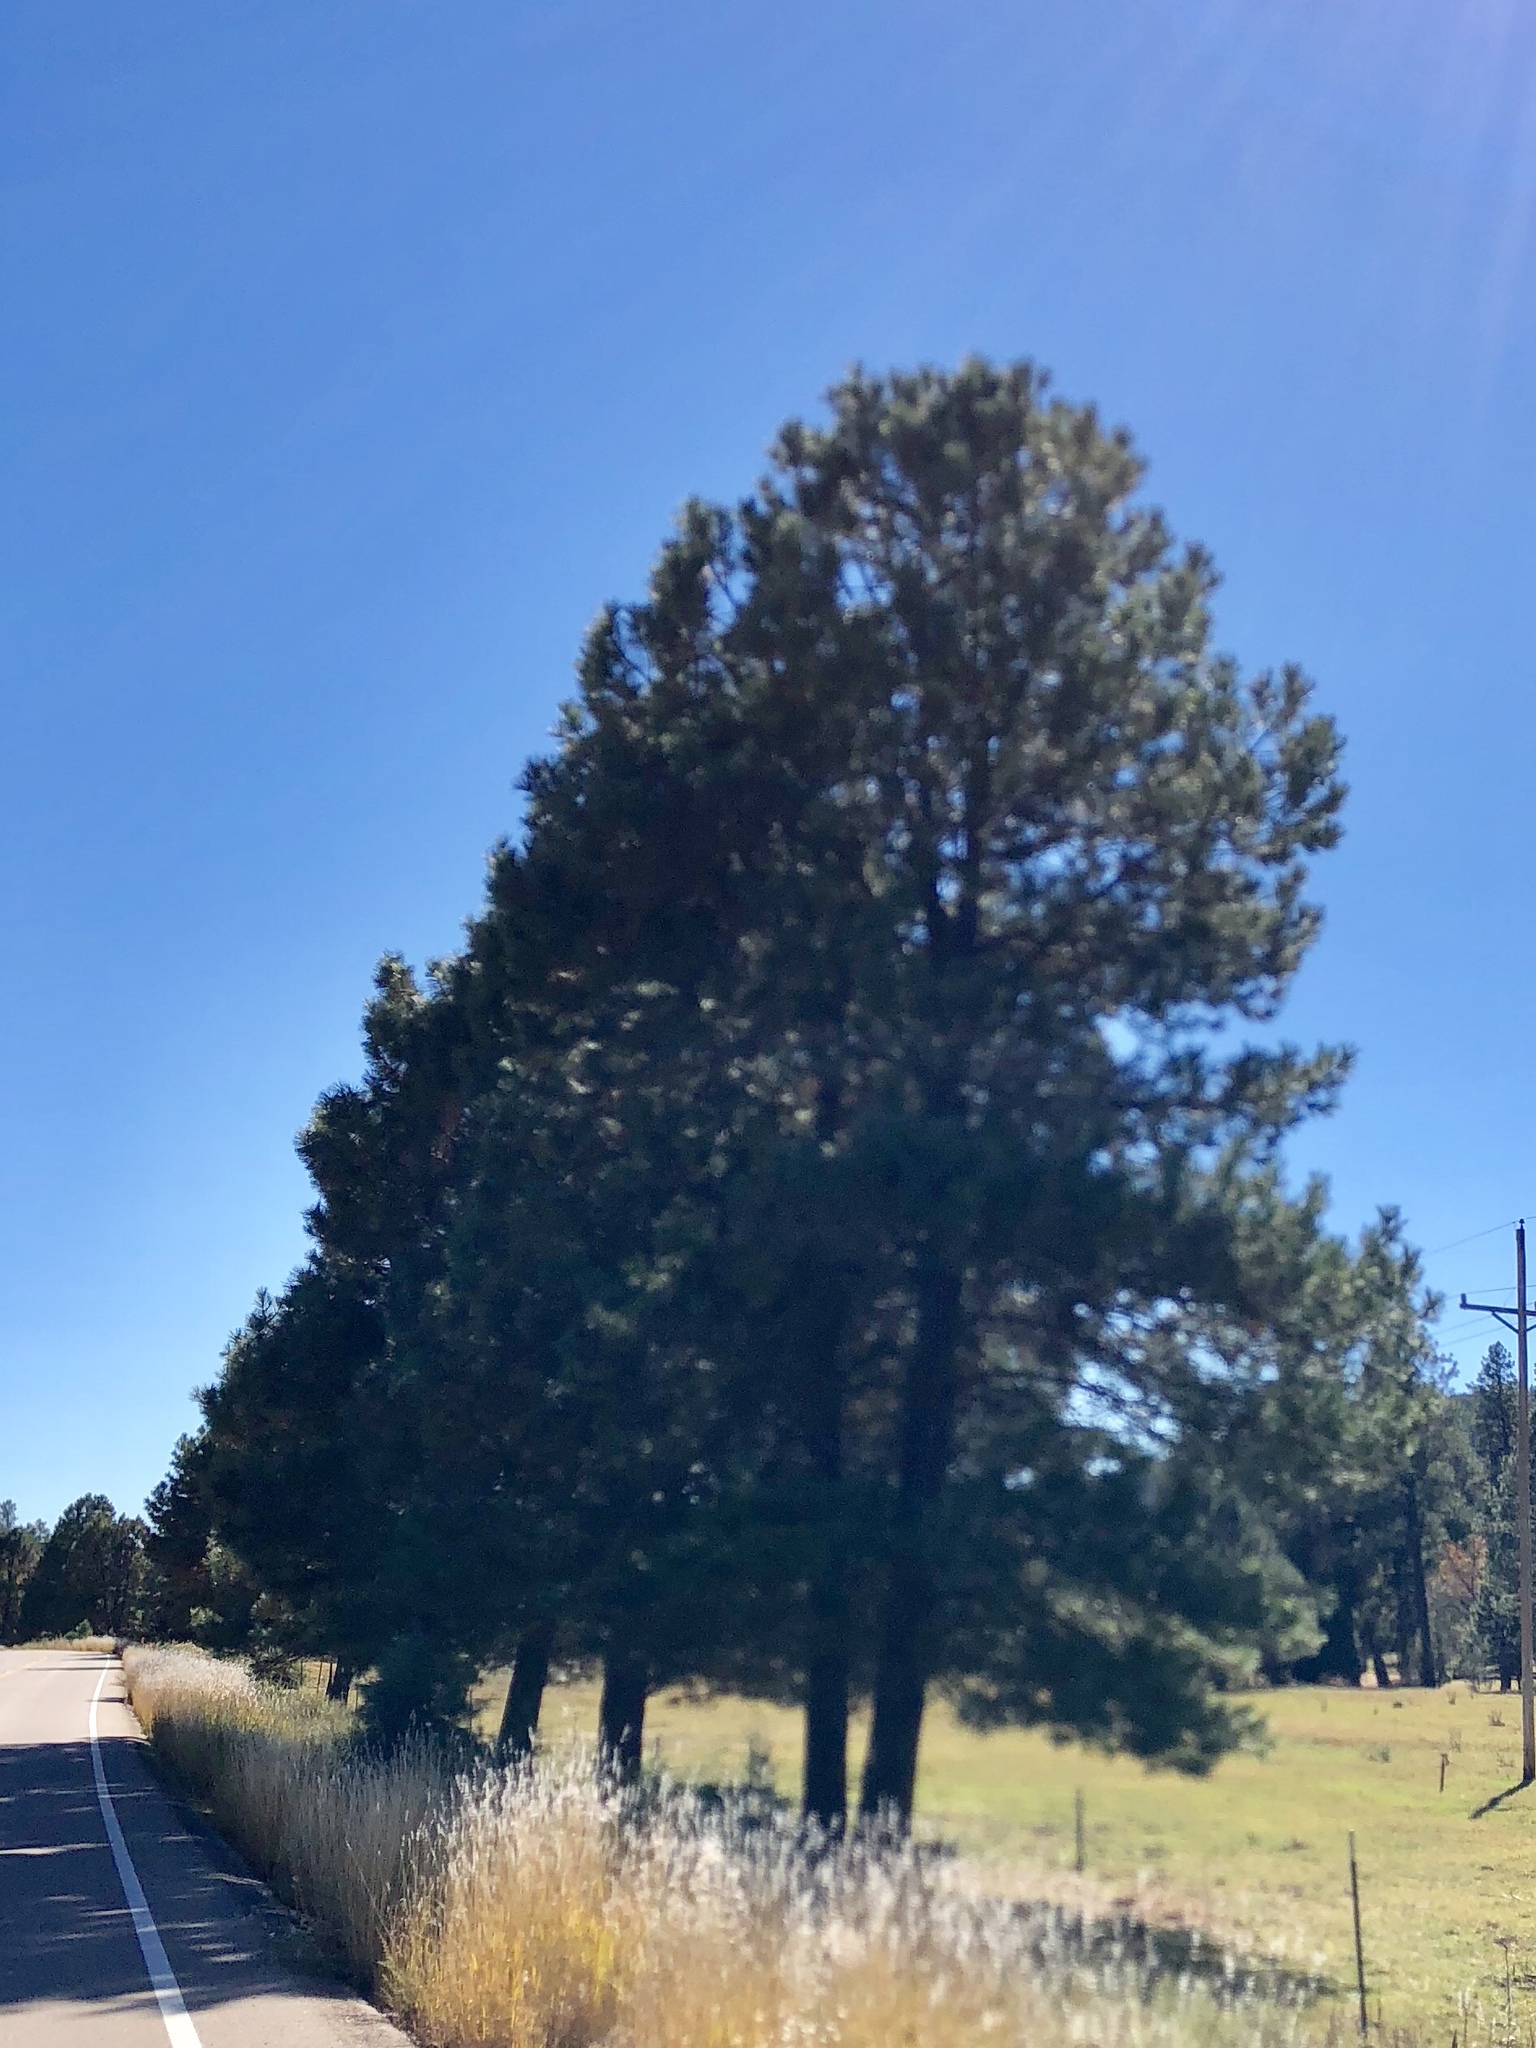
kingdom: Plantae
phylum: Tracheophyta
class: Pinopsida
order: Pinales
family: Pinaceae
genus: Pinus
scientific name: Pinus ponderosa
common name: Western yellow-pine
